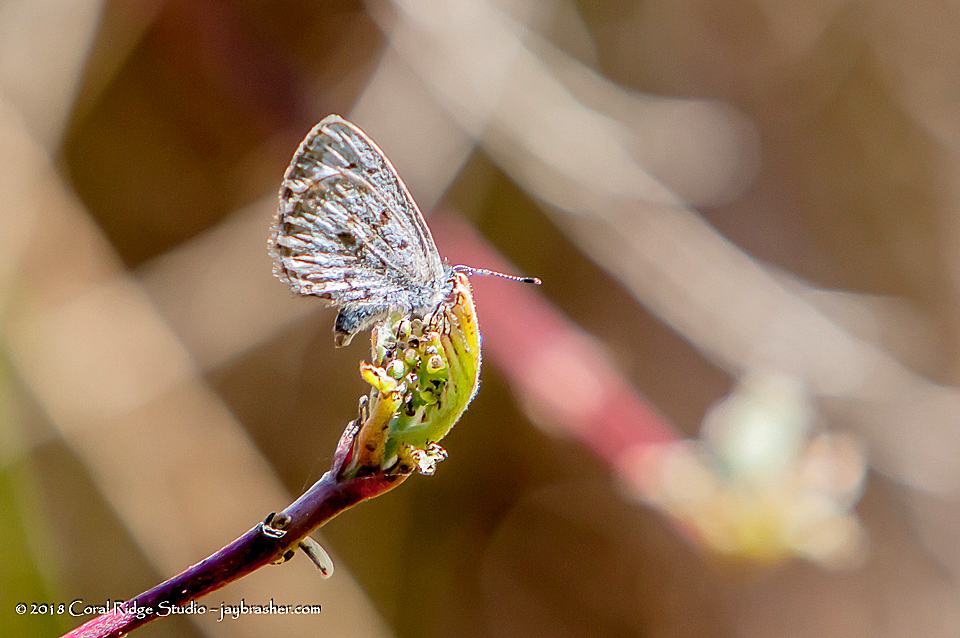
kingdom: Animalia
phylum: Arthropoda
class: Insecta
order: Lepidoptera
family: Lycaenidae
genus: Celastrina
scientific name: Celastrina lucia
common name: Lucia azure
